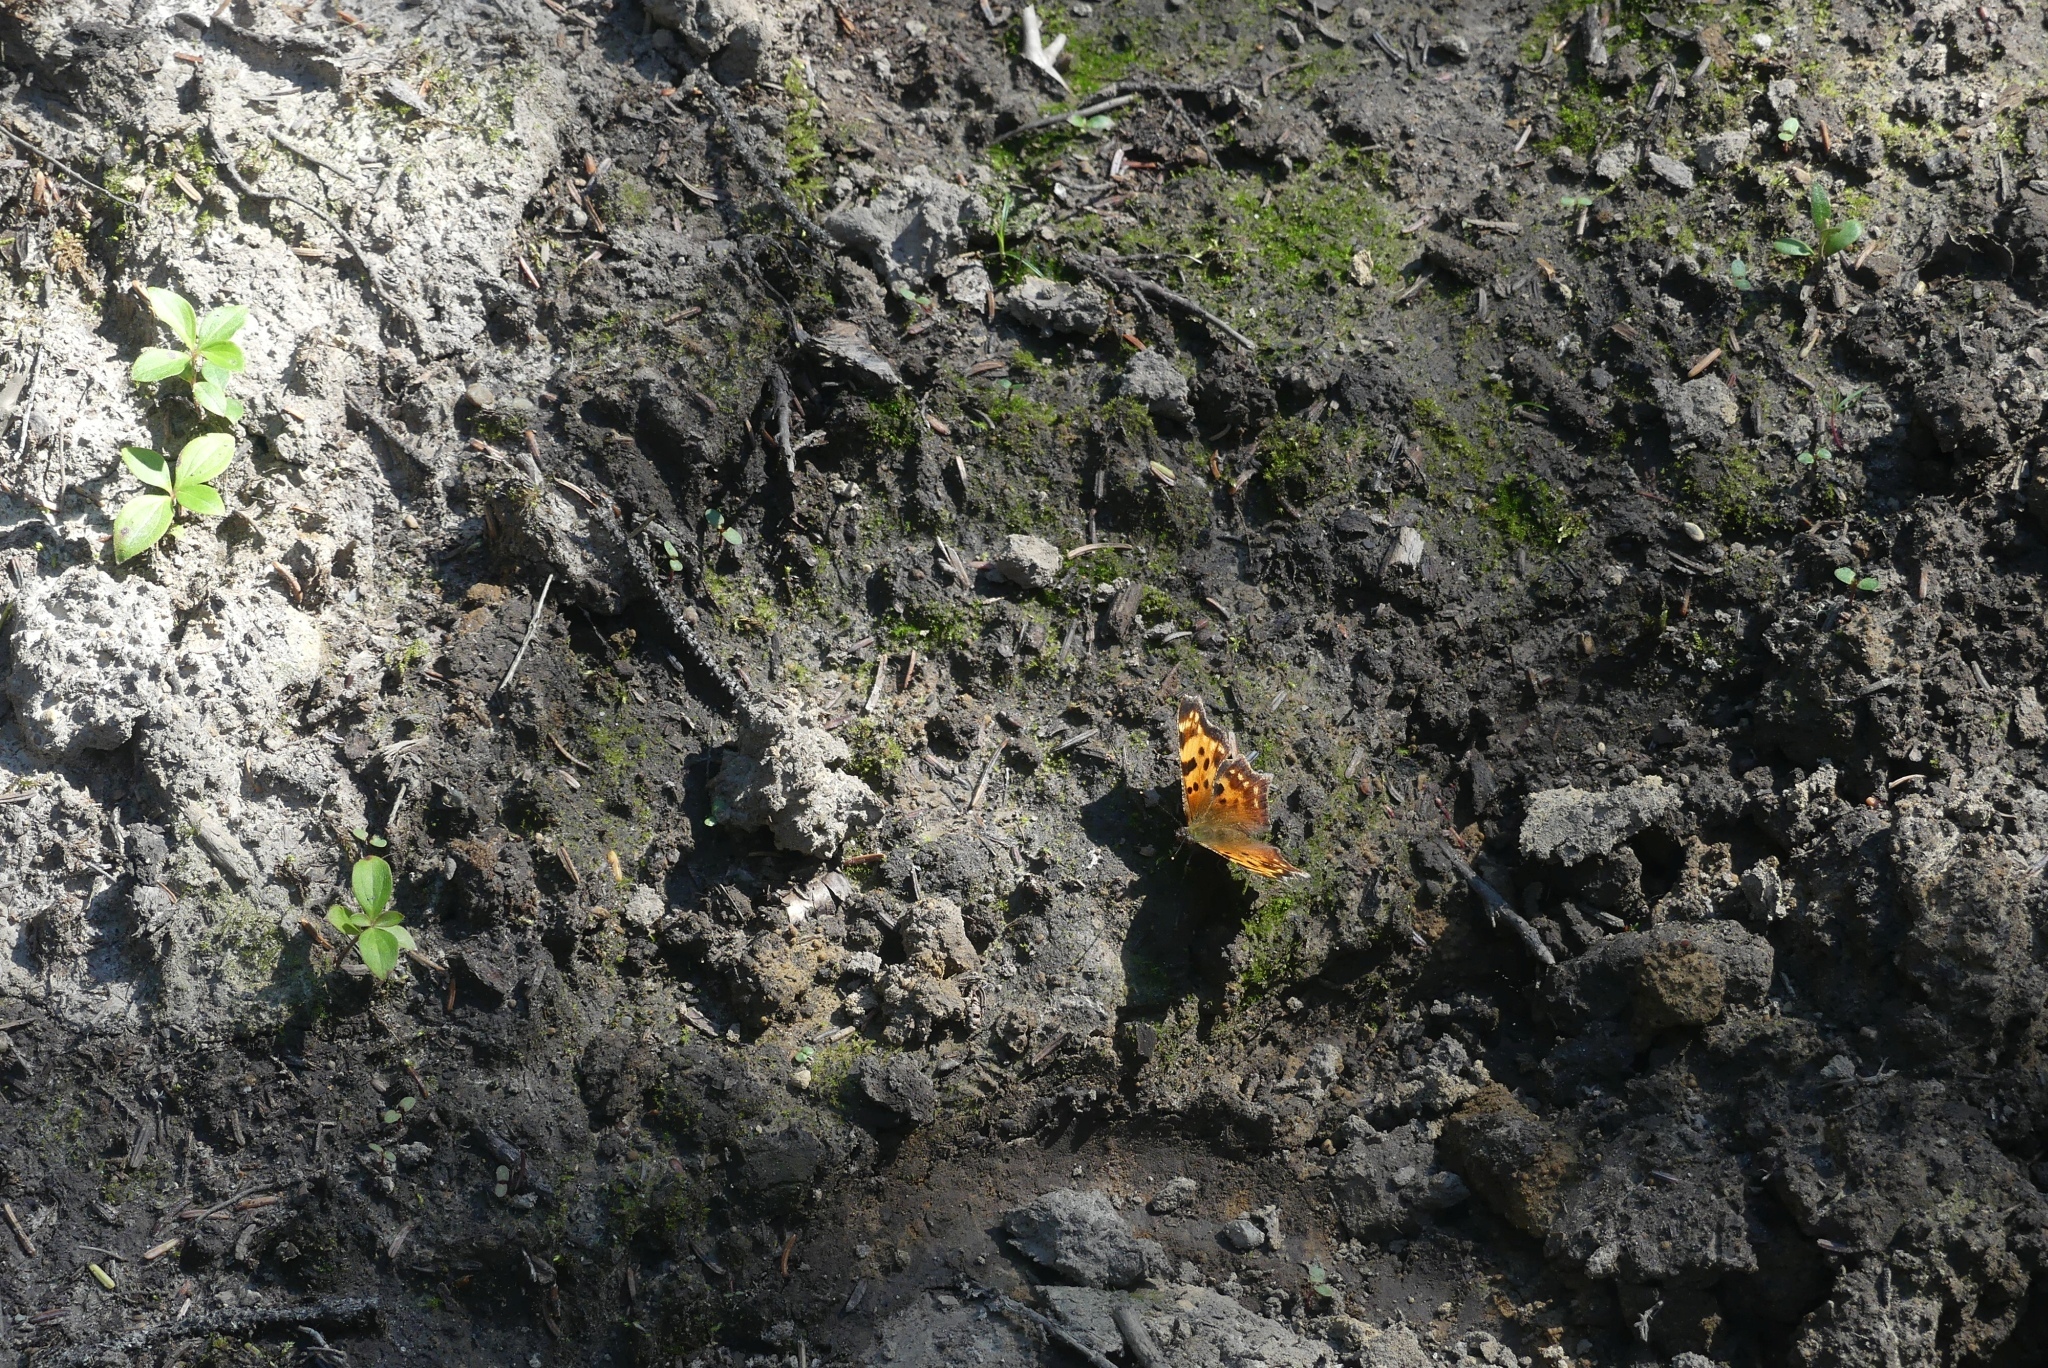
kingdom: Animalia
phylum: Arthropoda
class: Insecta
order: Lepidoptera
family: Nymphalidae
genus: Polygonia
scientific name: Polygonia faunus
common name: Green comma
